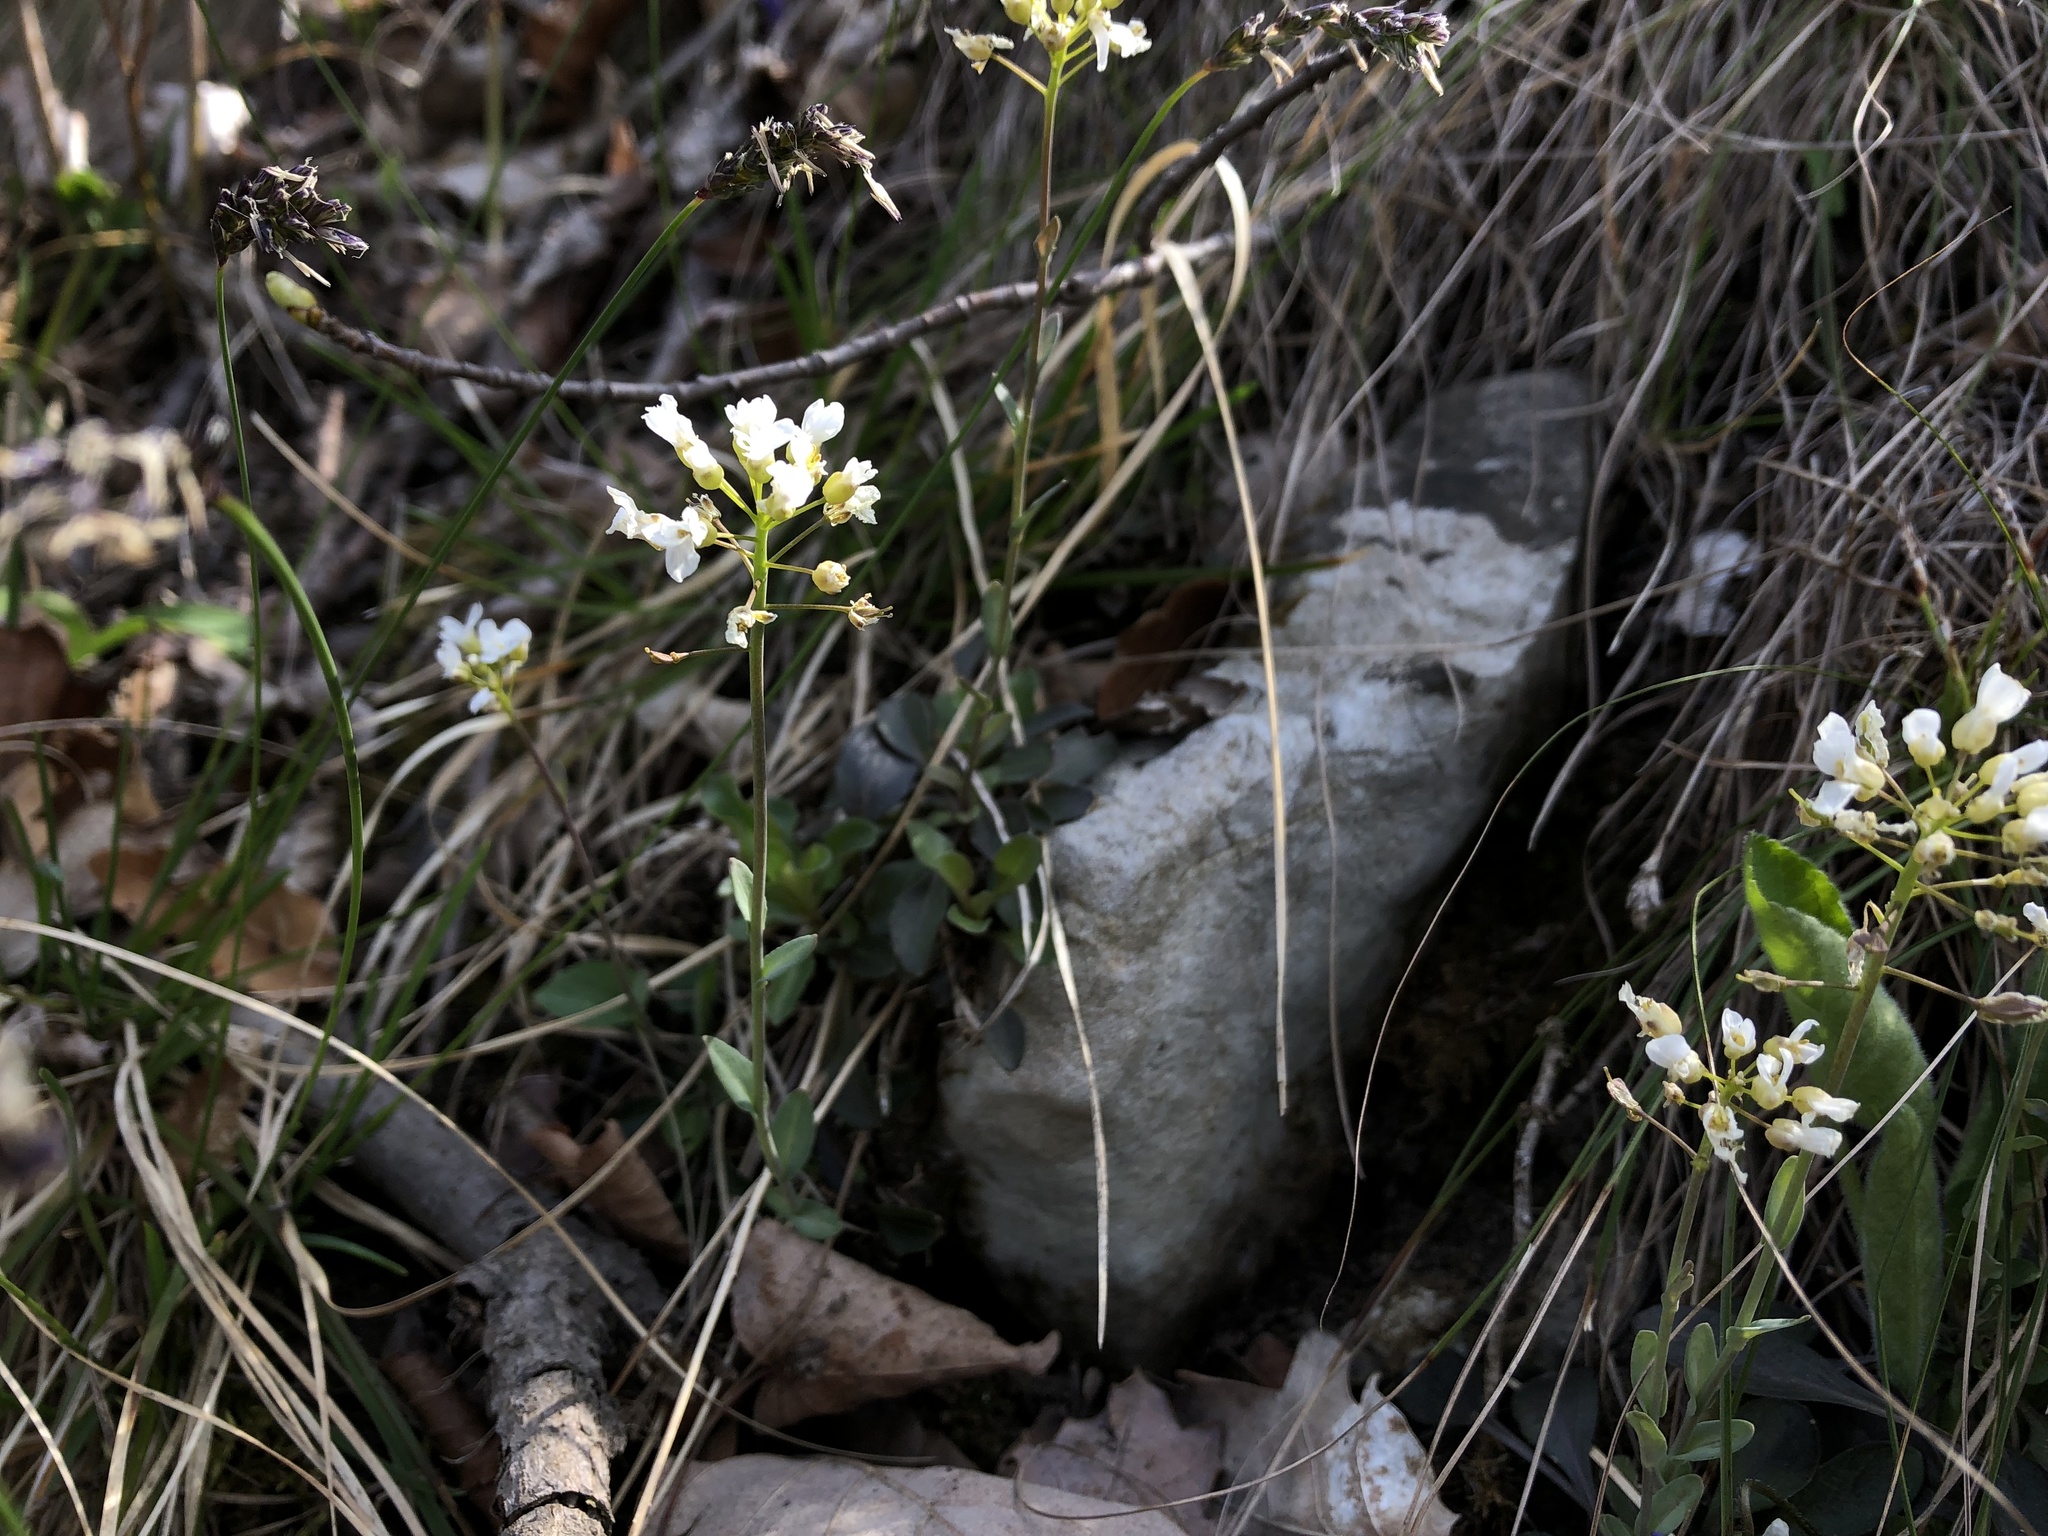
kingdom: Plantae
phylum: Tracheophyta
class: Magnoliopsida
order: Brassicales
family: Brassicaceae
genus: Noccaea
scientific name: Noccaea montana
